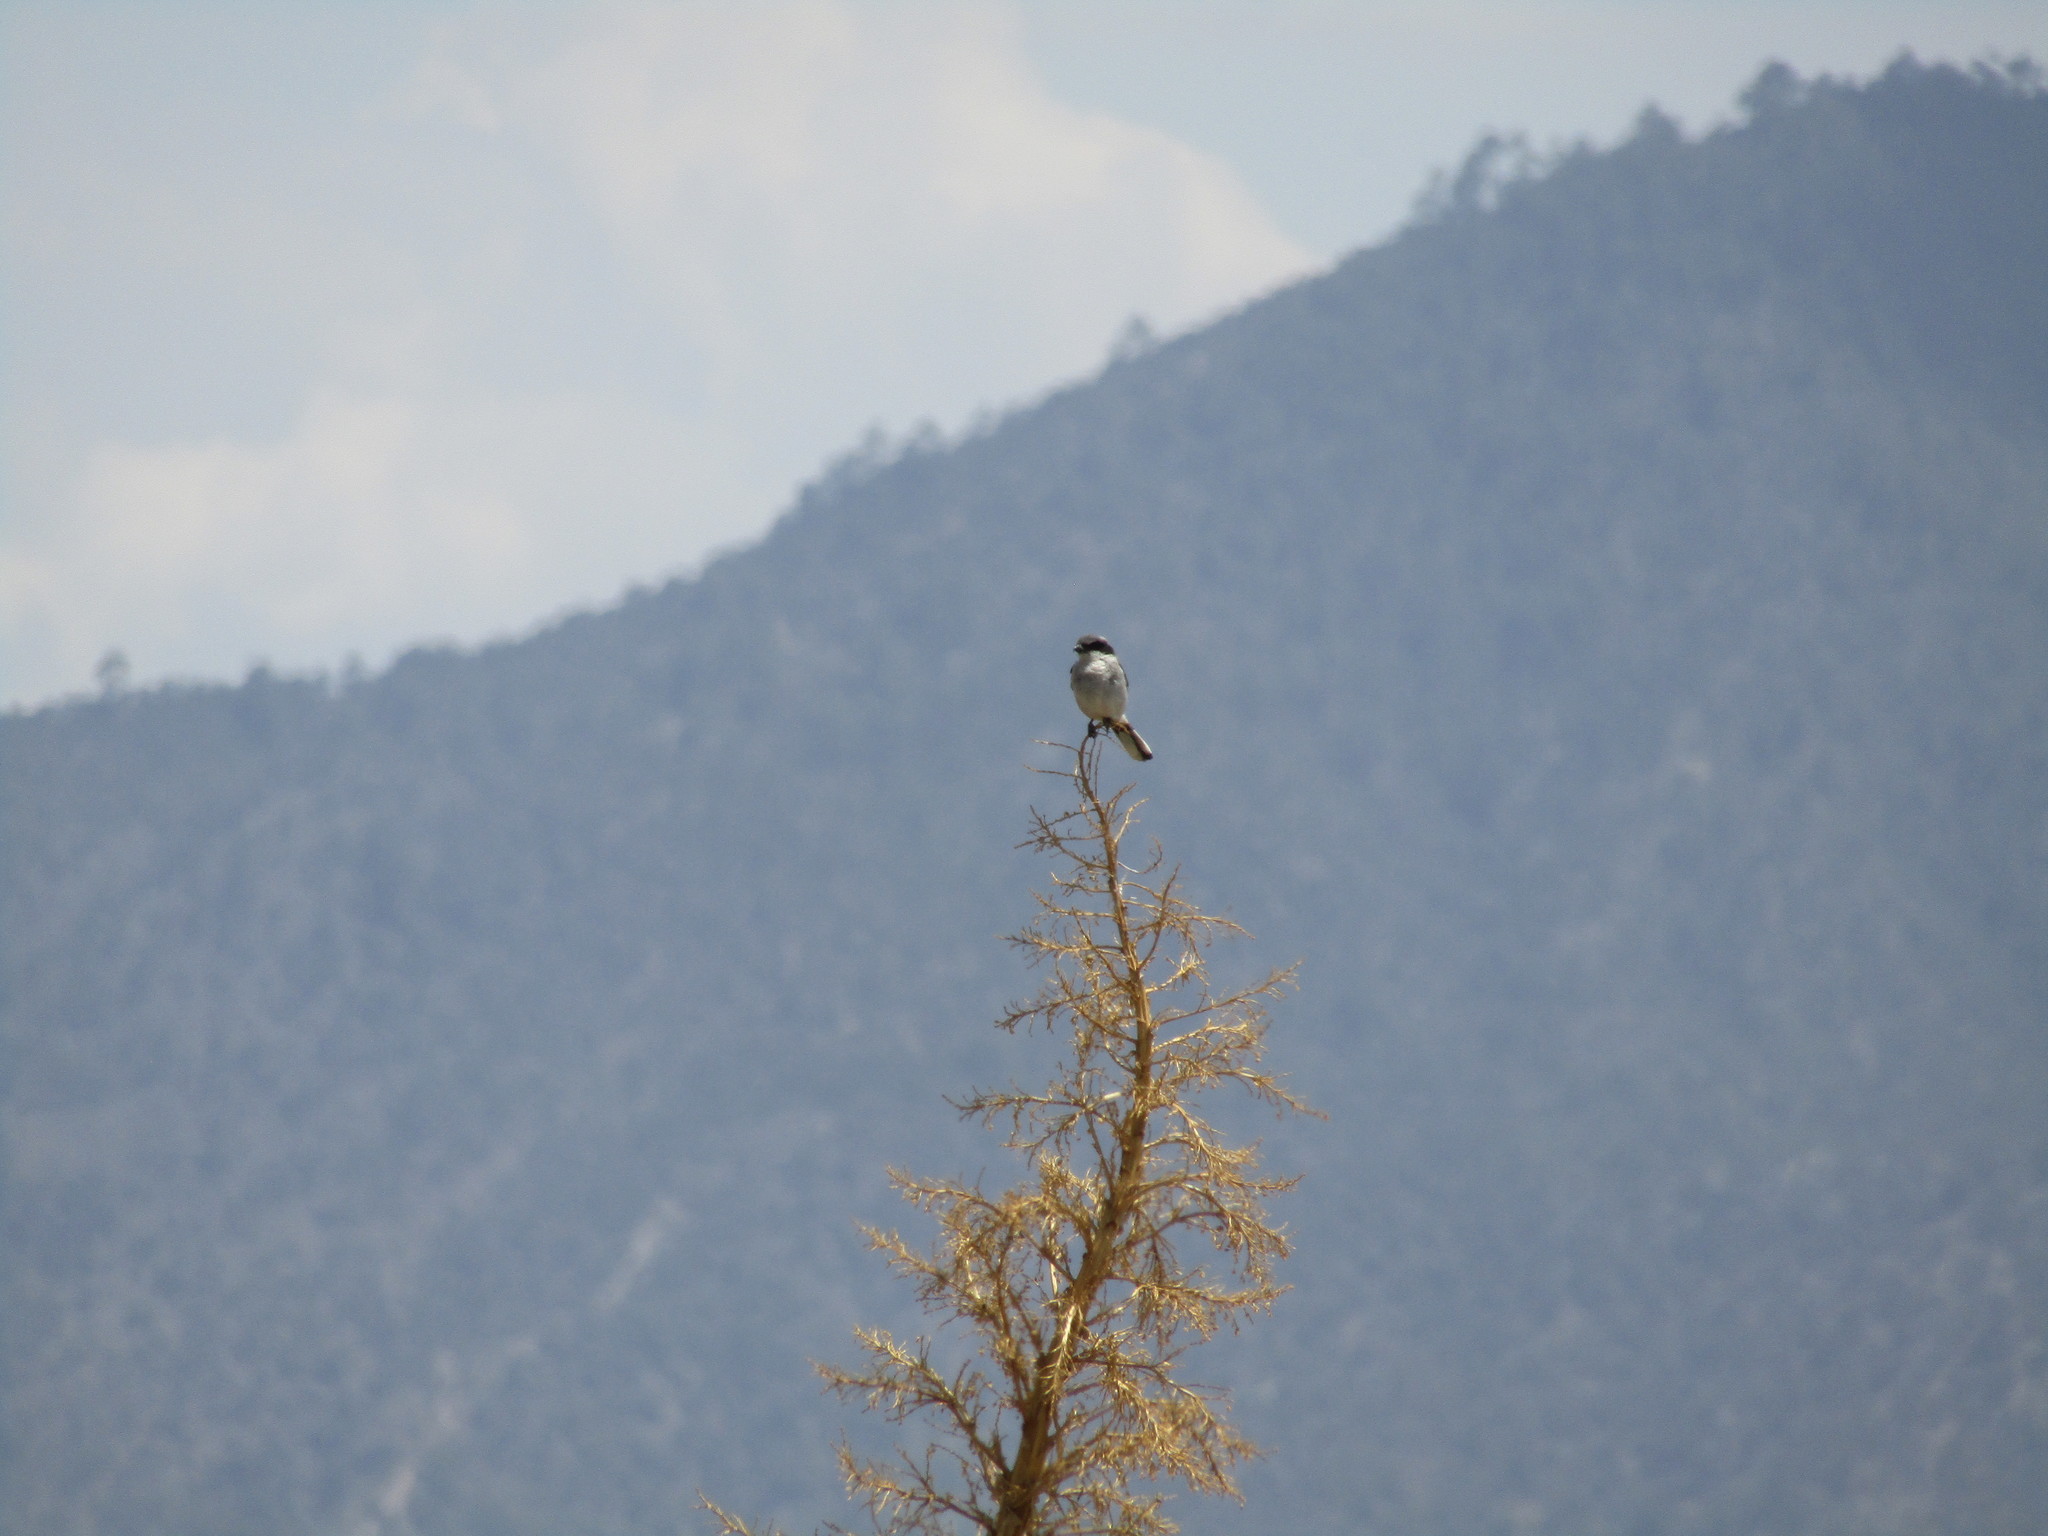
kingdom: Animalia
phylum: Chordata
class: Aves
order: Passeriformes
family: Laniidae
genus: Lanius
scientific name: Lanius ludovicianus
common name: Loggerhead shrike
